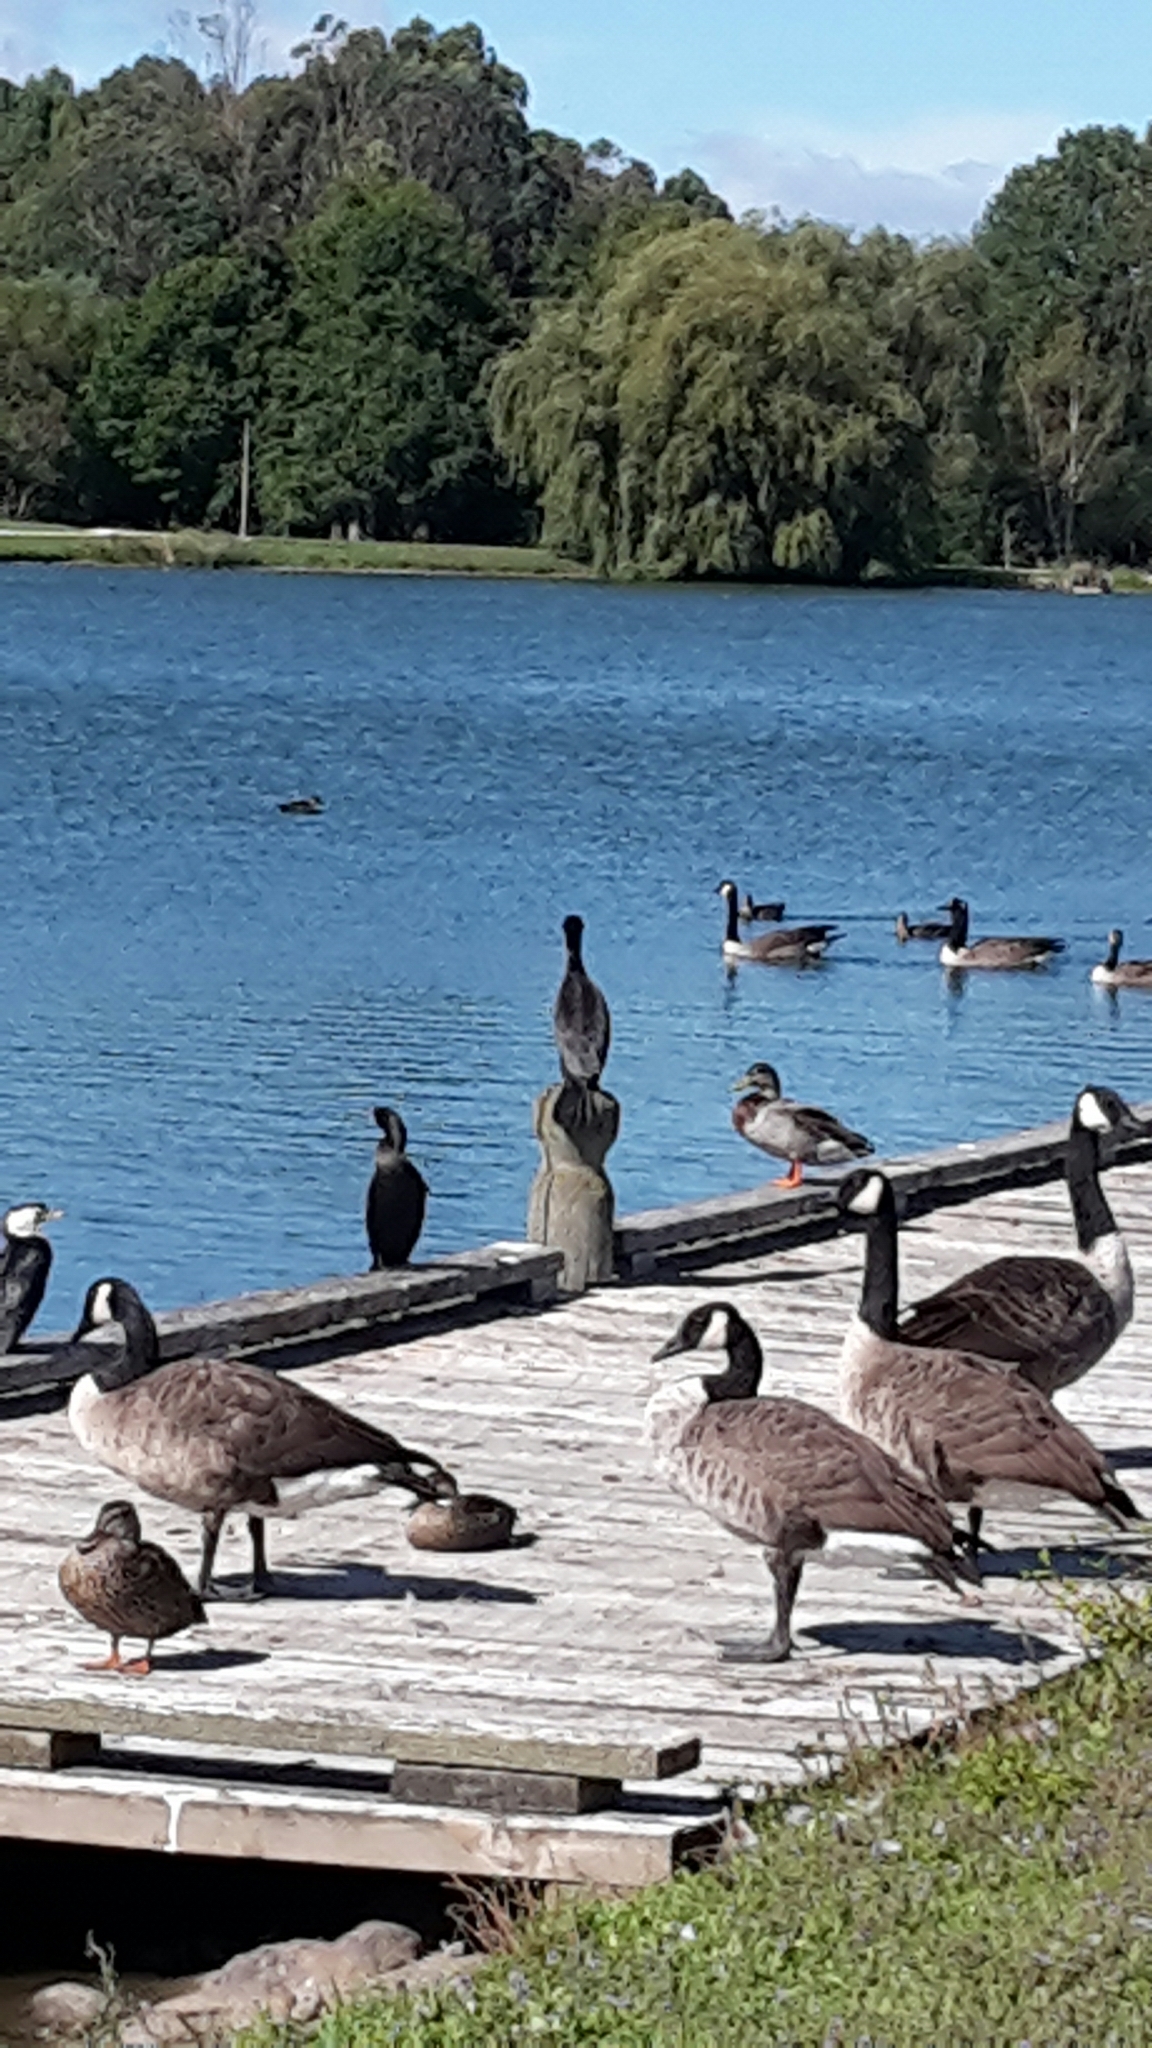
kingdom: Animalia
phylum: Chordata
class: Aves
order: Suliformes
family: Phalacrocoracidae
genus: Microcarbo
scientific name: Microcarbo melanoleucos
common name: Little pied cormorant
